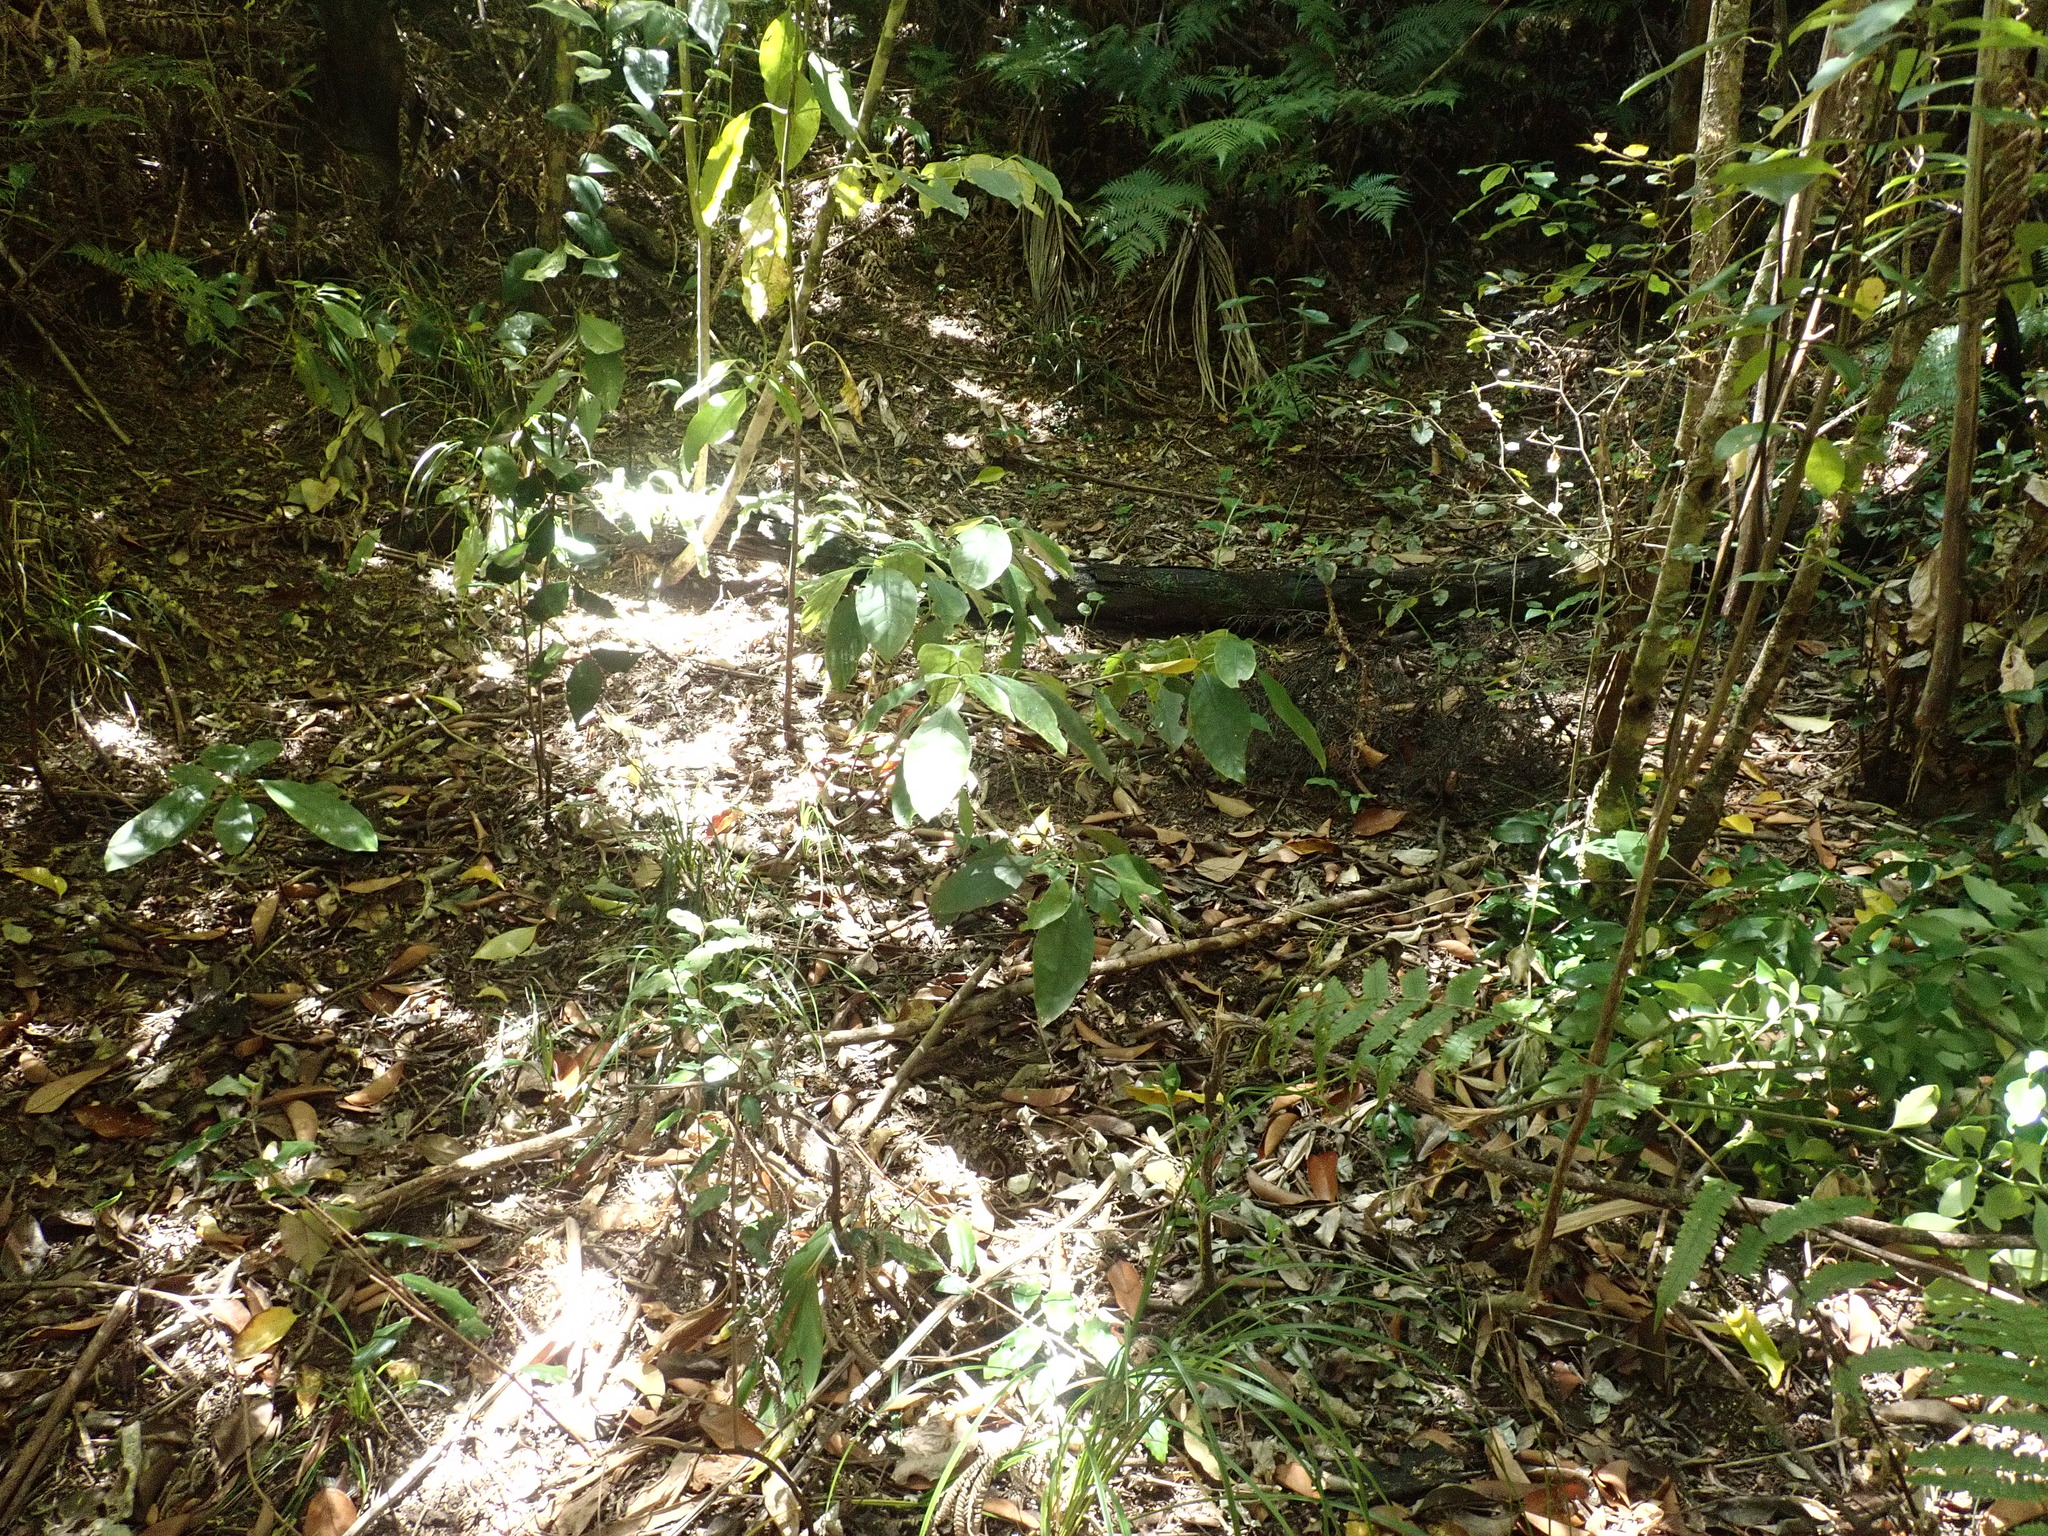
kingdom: Plantae
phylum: Tracheophyta
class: Magnoliopsida
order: Gentianales
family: Rubiaceae
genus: Coprosma
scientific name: Coprosma autumnalis
